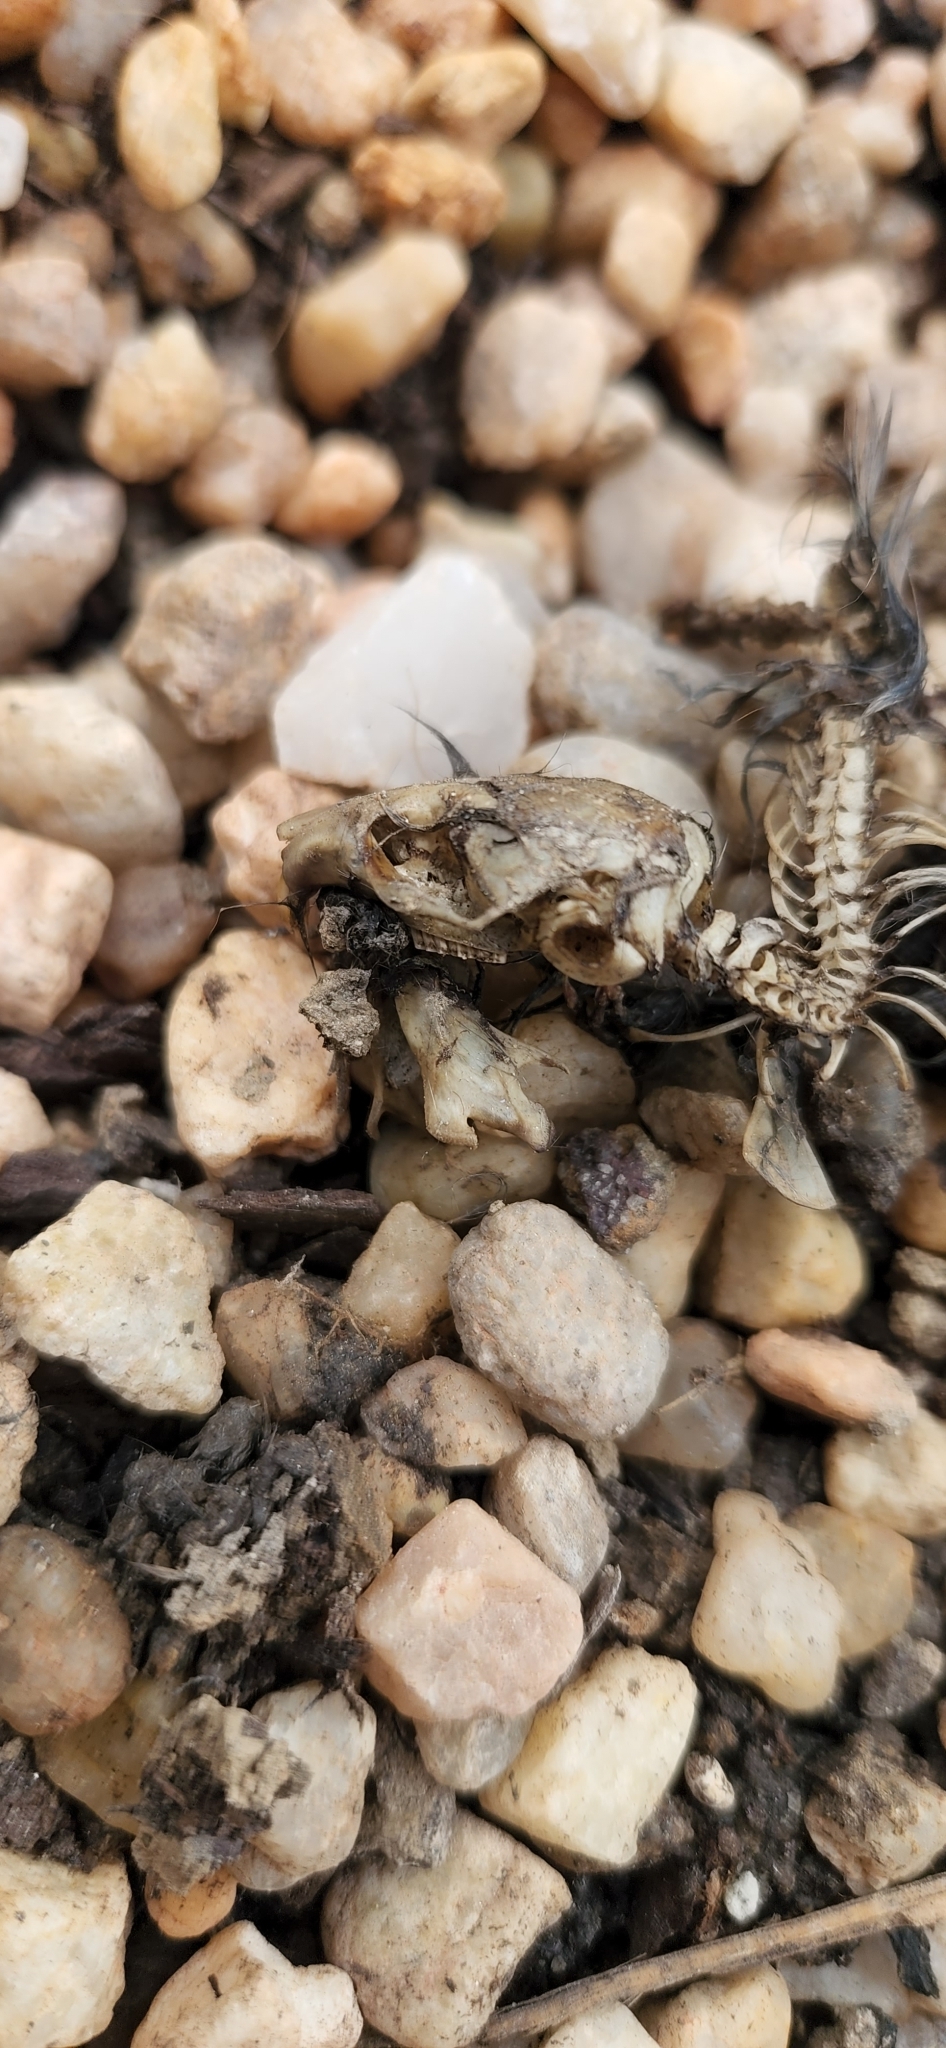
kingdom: Animalia
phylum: Chordata
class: Mammalia
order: Rodentia
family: Cricetidae
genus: Microtus
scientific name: Microtus pinetorum
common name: Woodland vole
